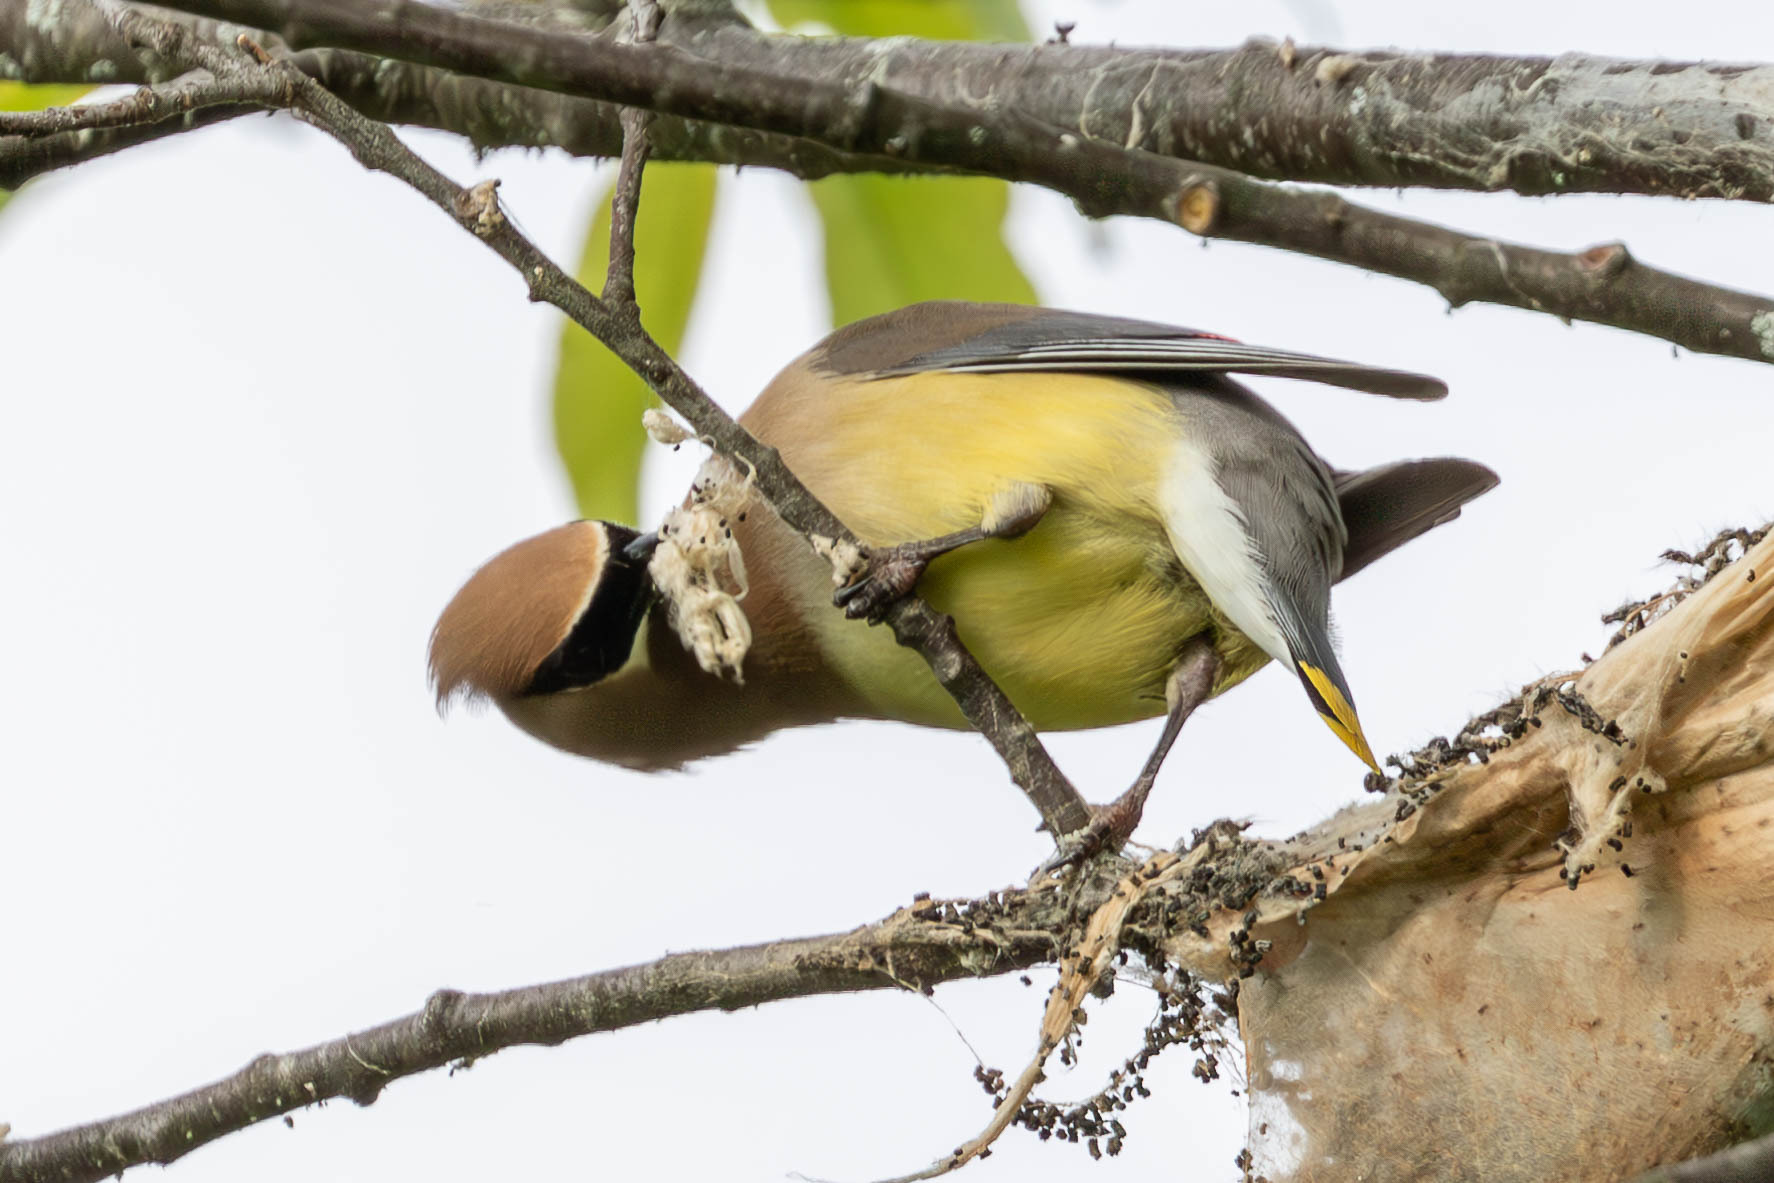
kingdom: Animalia
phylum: Chordata
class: Aves
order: Passeriformes
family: Bombycillidae
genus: Bombycilla
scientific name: Bombycilla cedrorum
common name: Cedar waxwing
